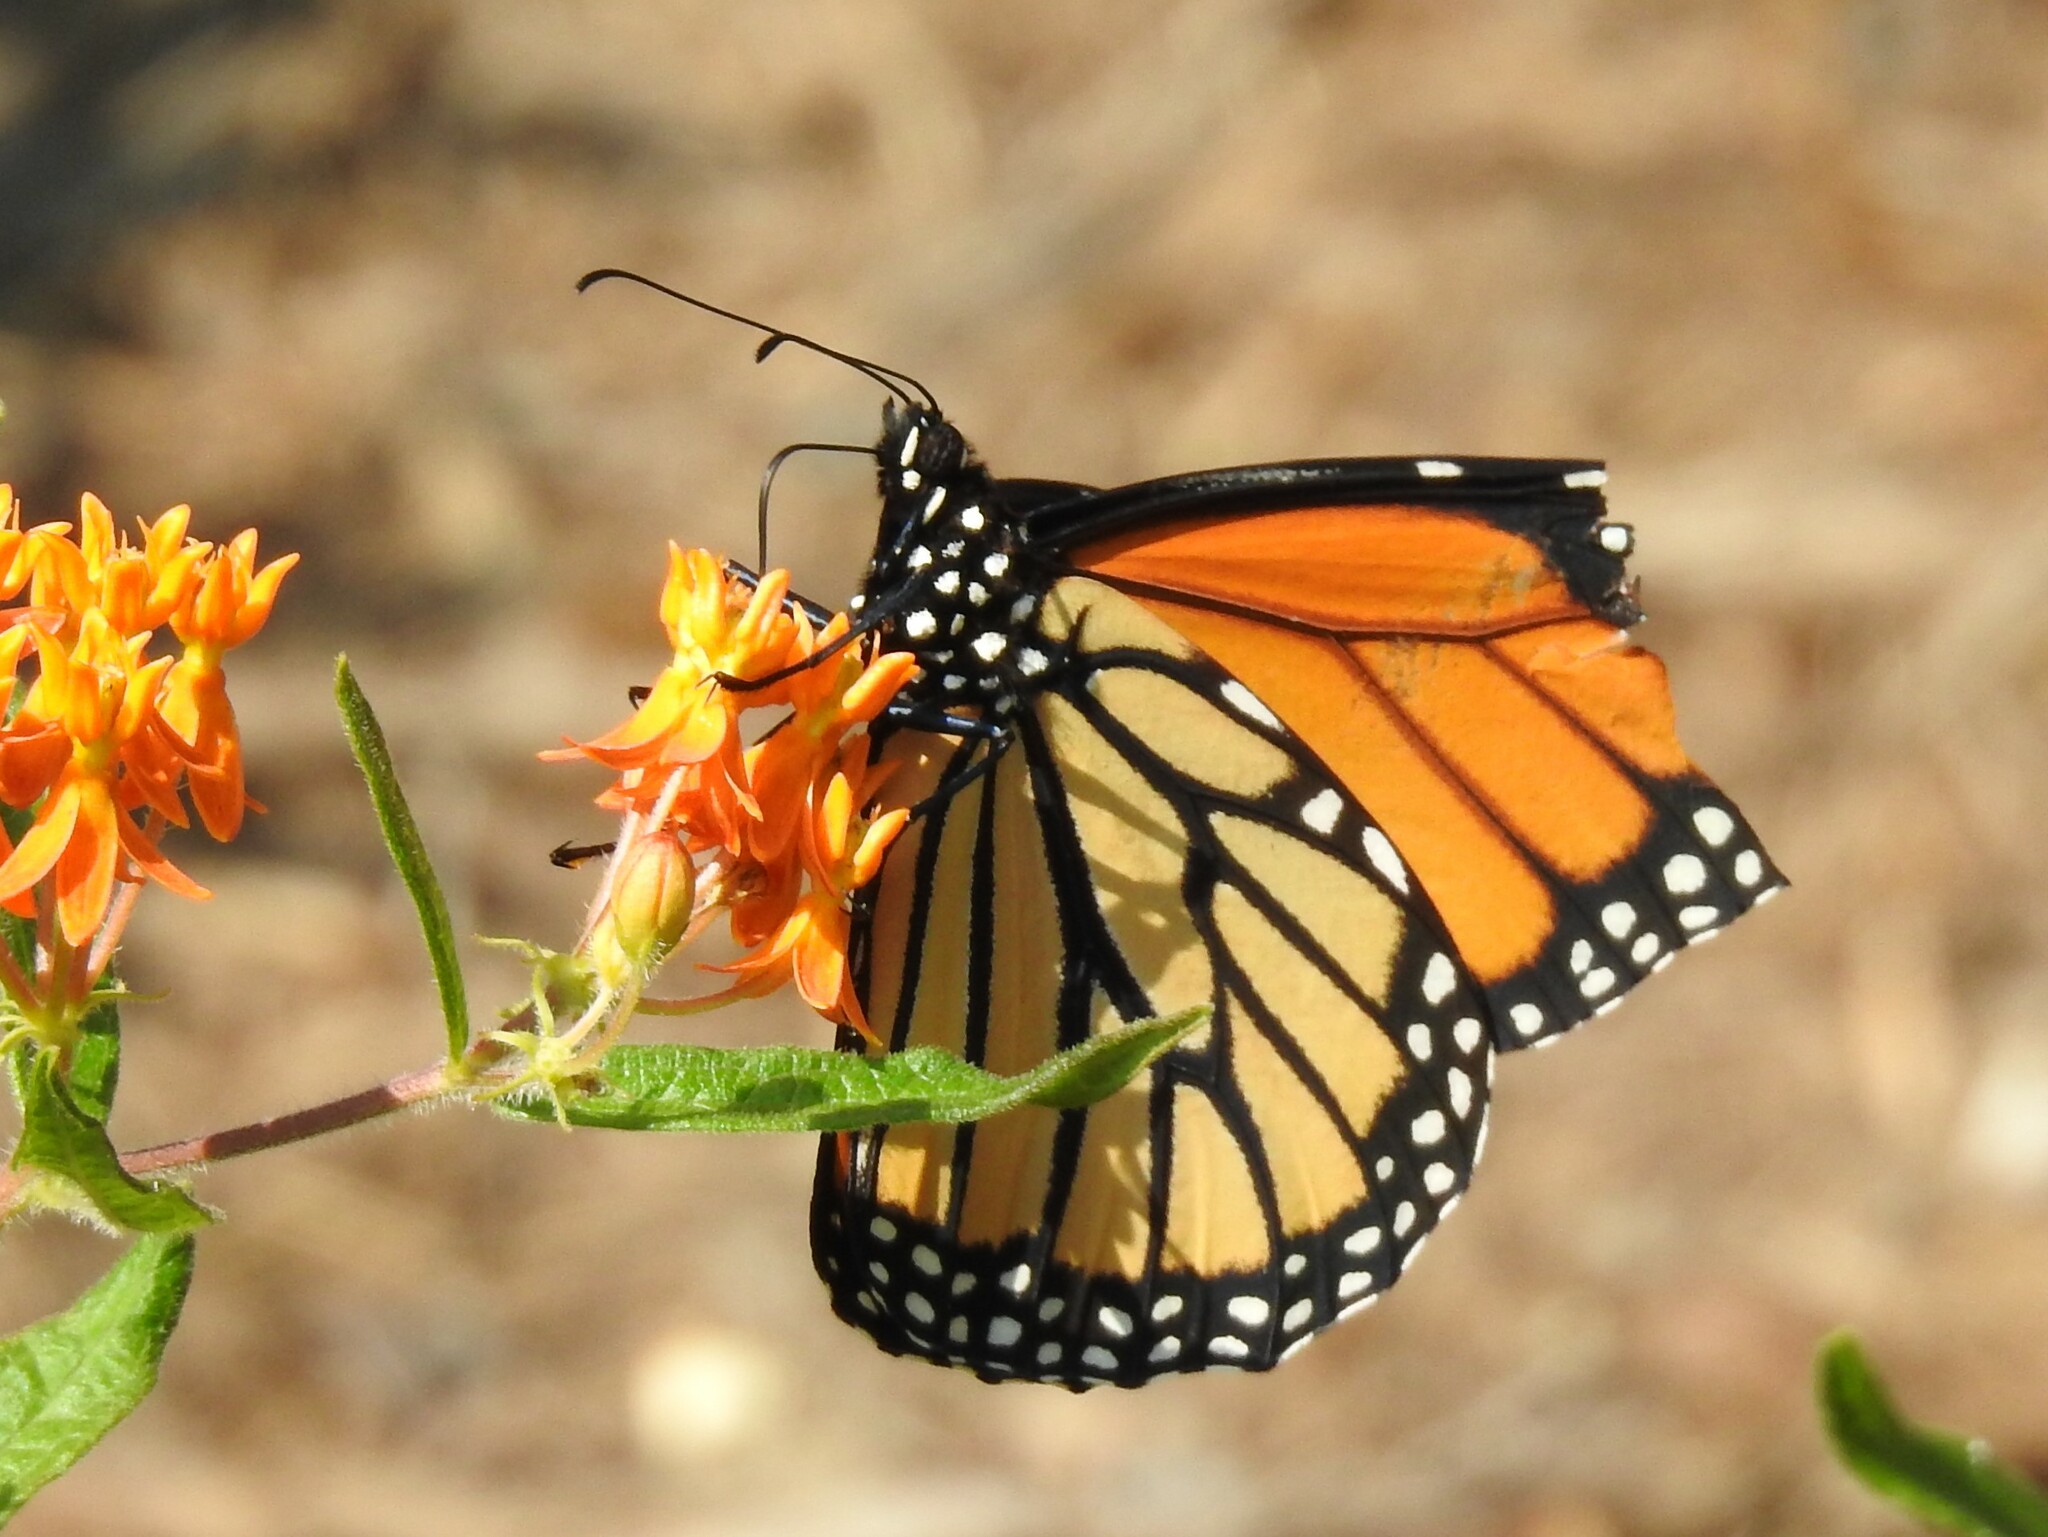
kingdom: Animalia
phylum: Arthropoda
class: Insecta
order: Lepidoptera
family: Nymphalidae
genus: Danaus
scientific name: Danaus plexippus
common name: Monarch
